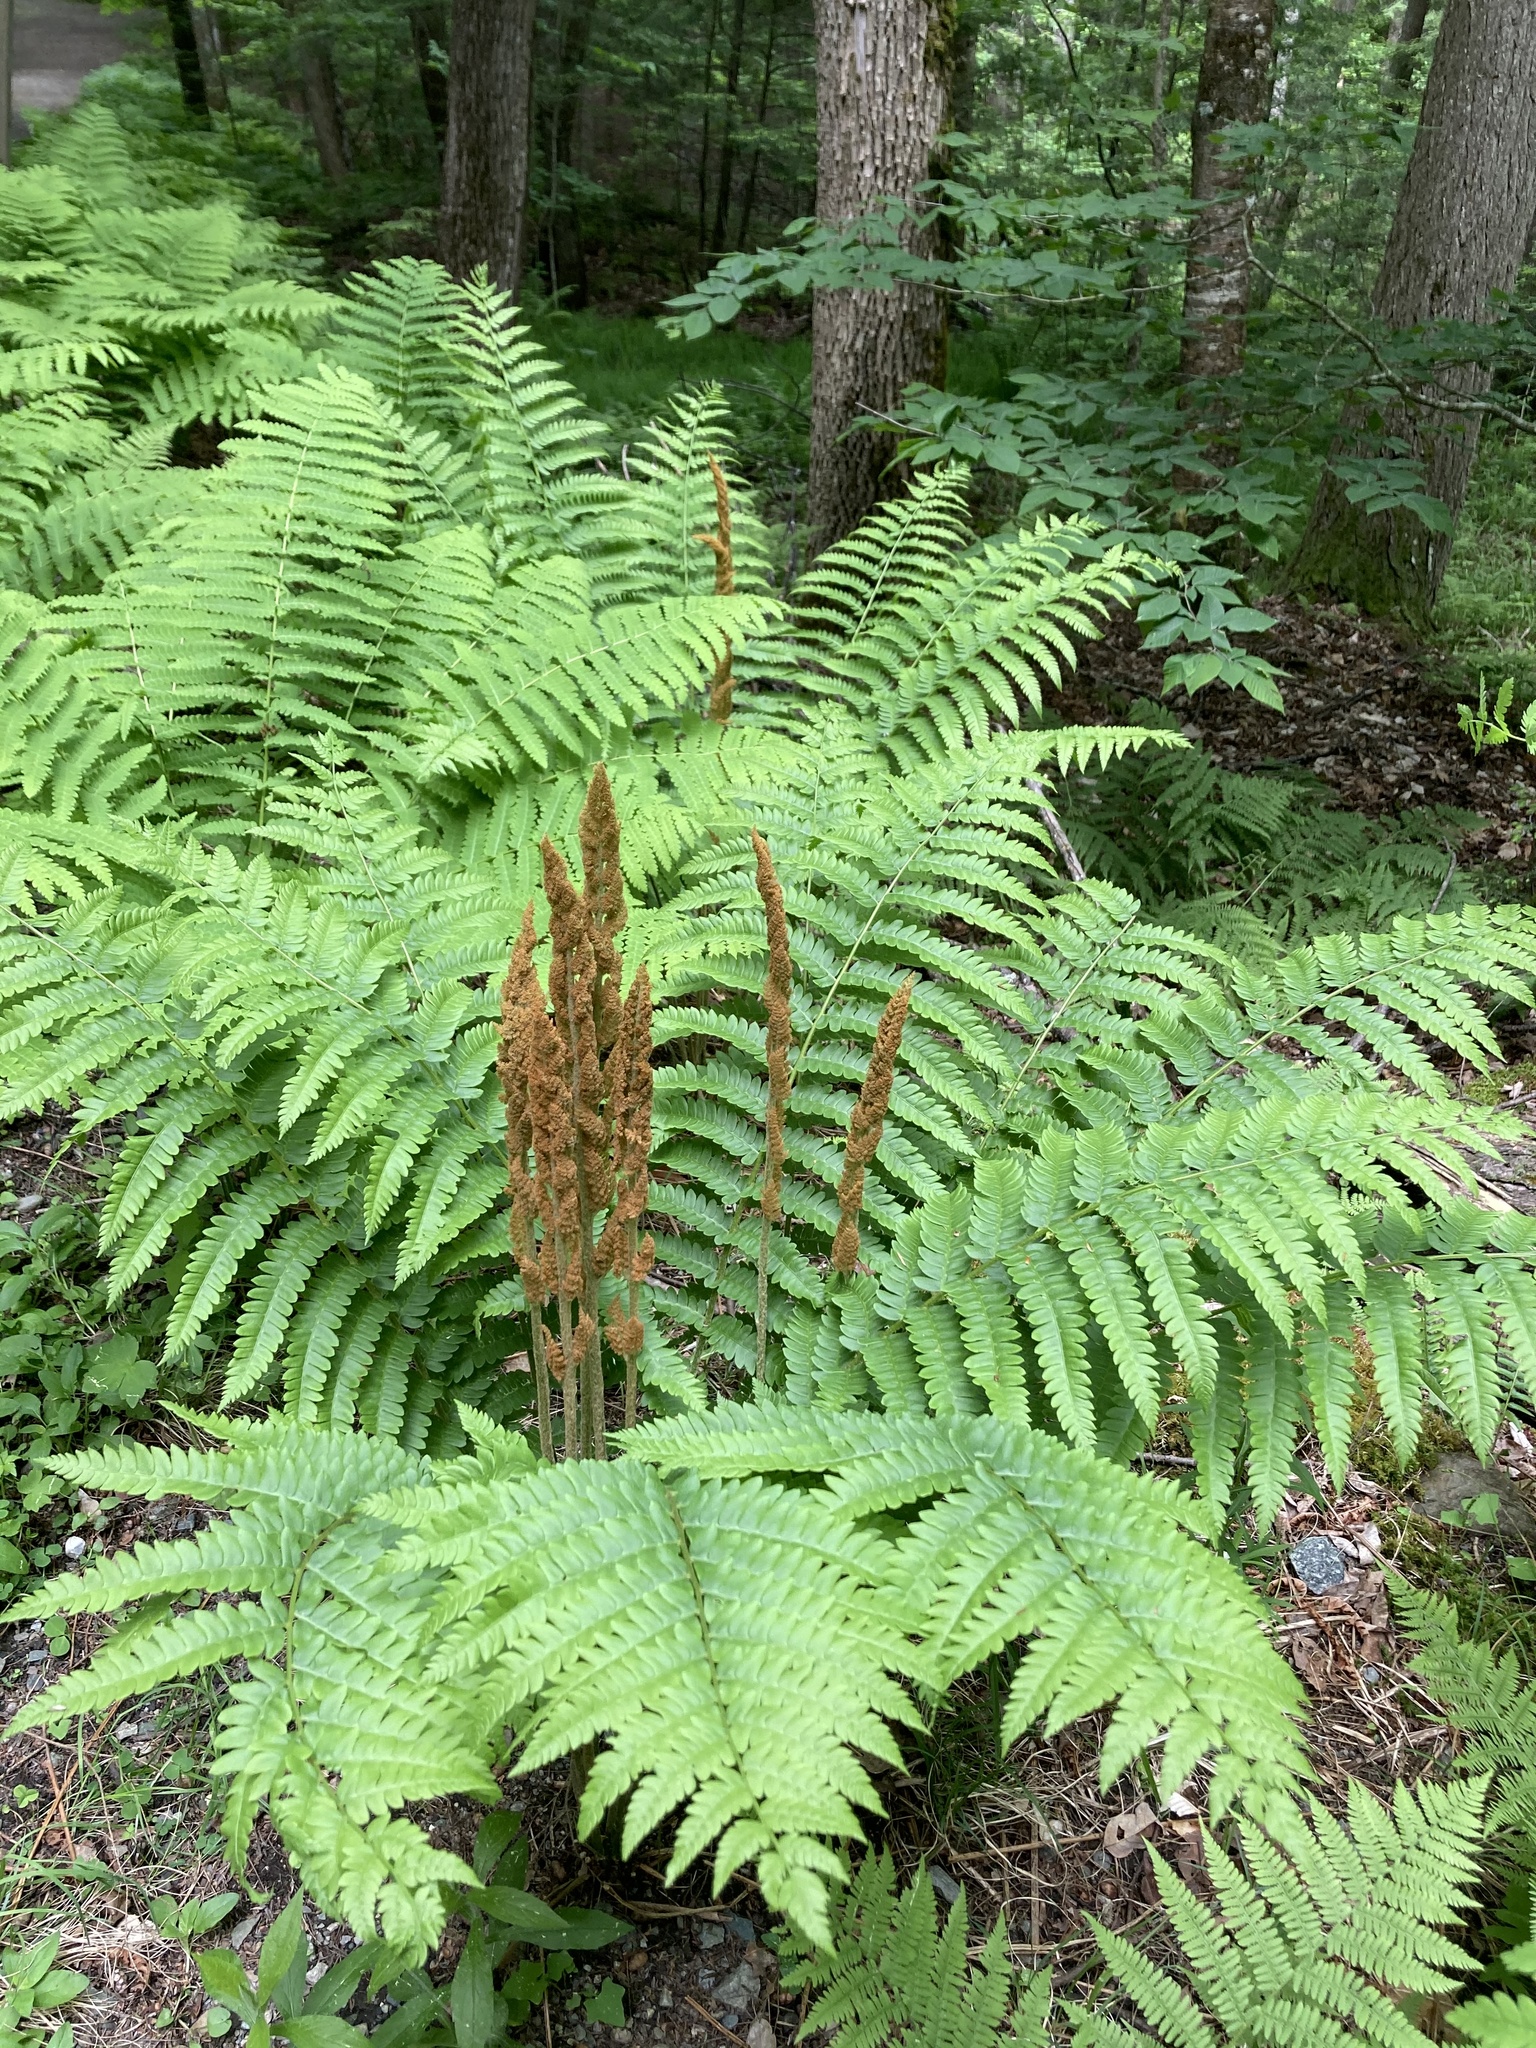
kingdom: Plantae
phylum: Tracheophyta
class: Polypodiopsida
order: Osmundales
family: Osmundaceae
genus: Osmundastrum
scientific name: Osmundastrum cinnamomeum
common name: Cinnamon fern
